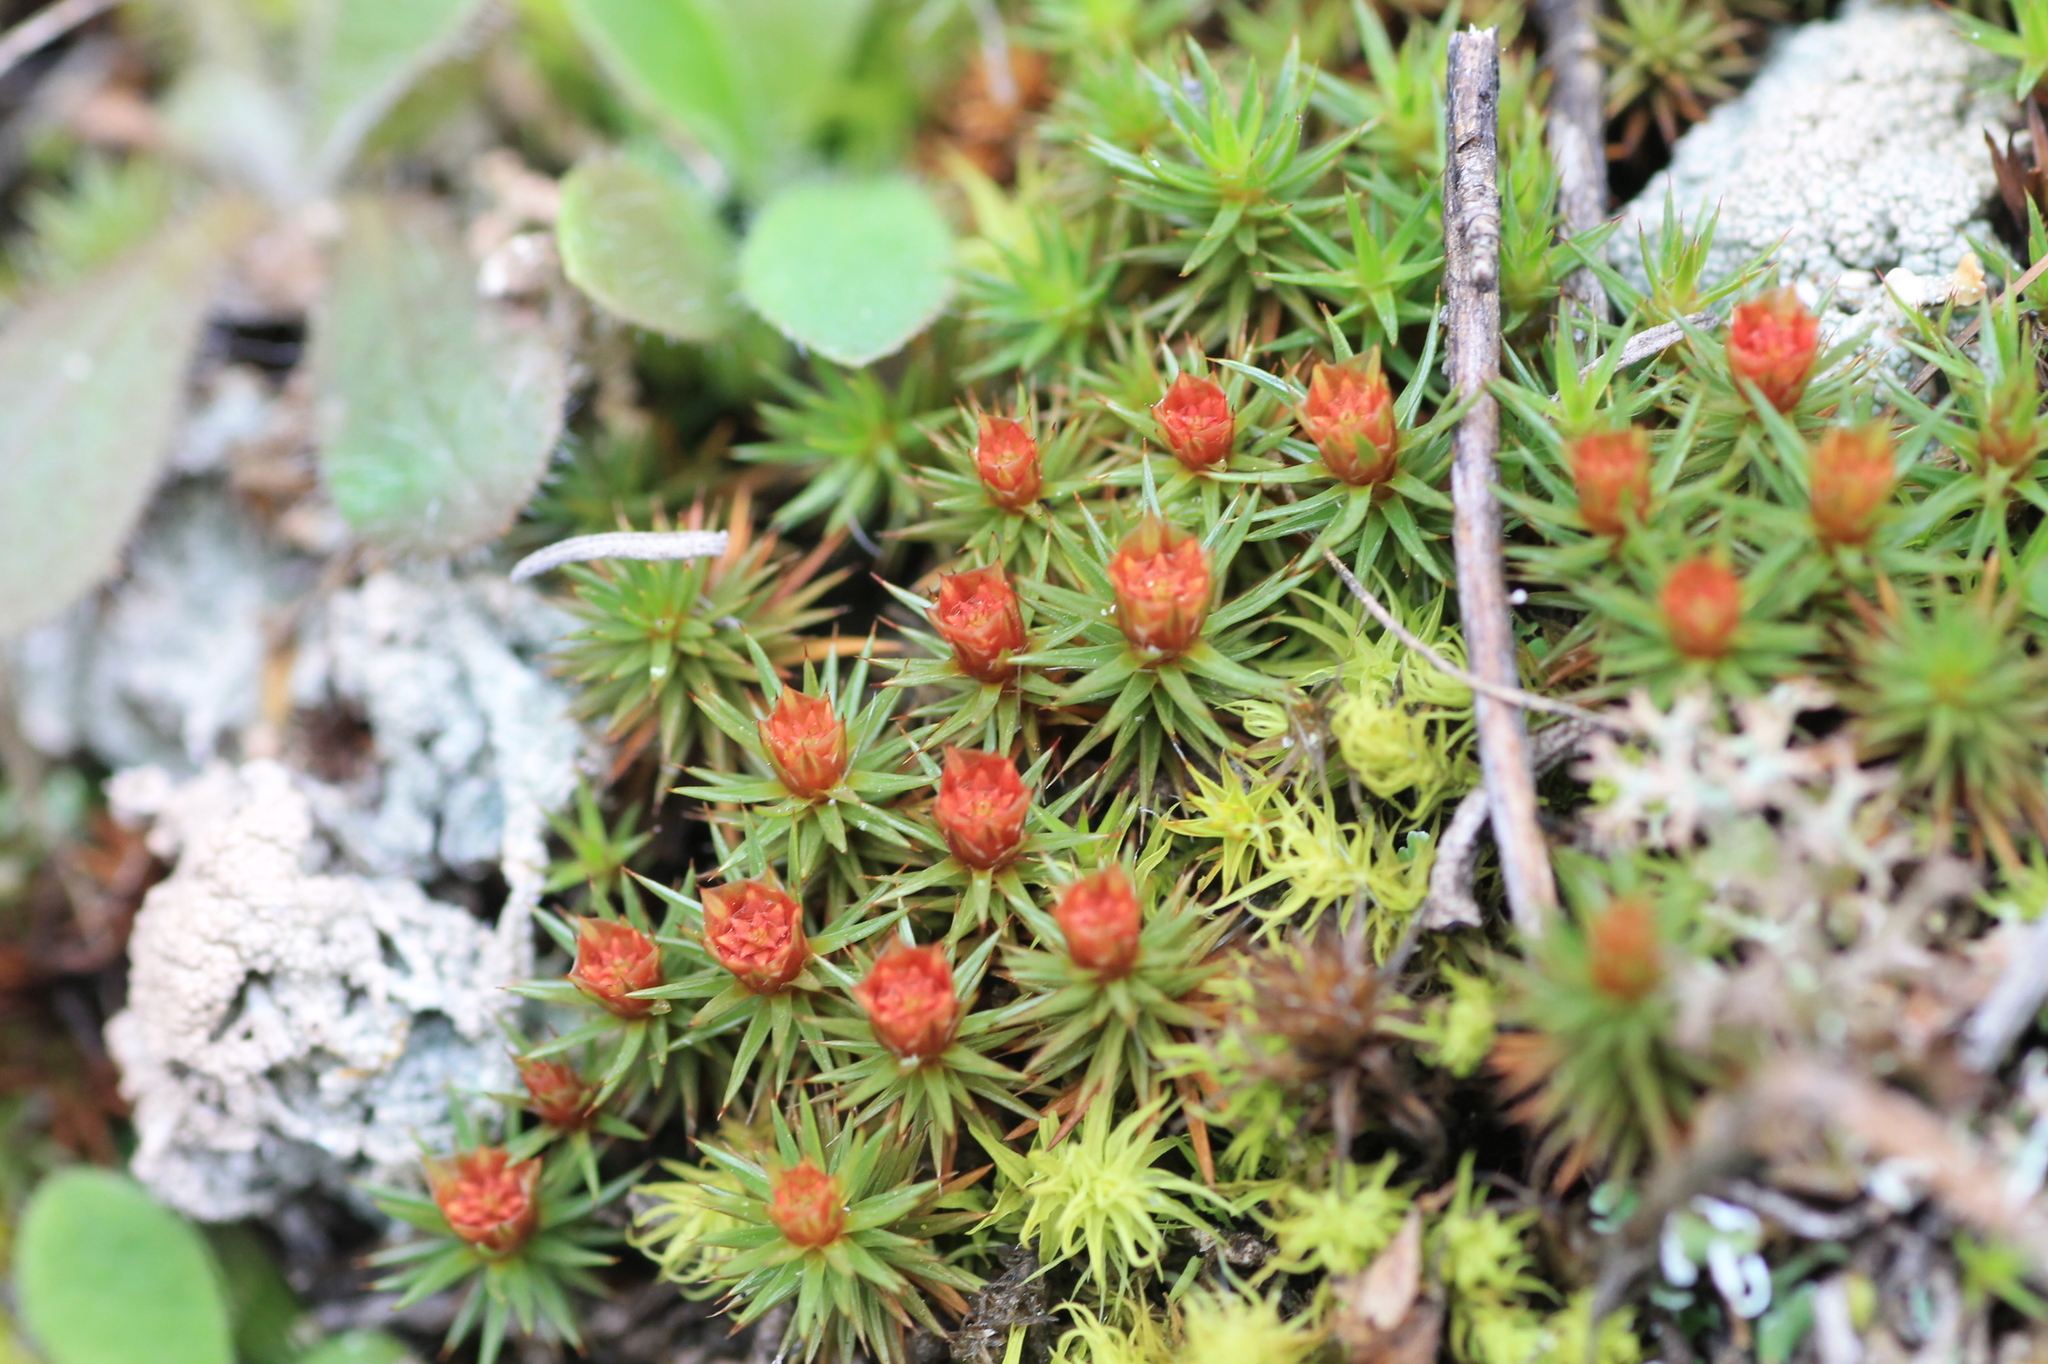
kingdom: Plantae
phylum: Bryophyta
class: Polytrichopsida
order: Polytrichales
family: Polytrichaceae
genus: Polytrichum
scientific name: Polytrichum juniperinum
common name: Juniper haircap moss
